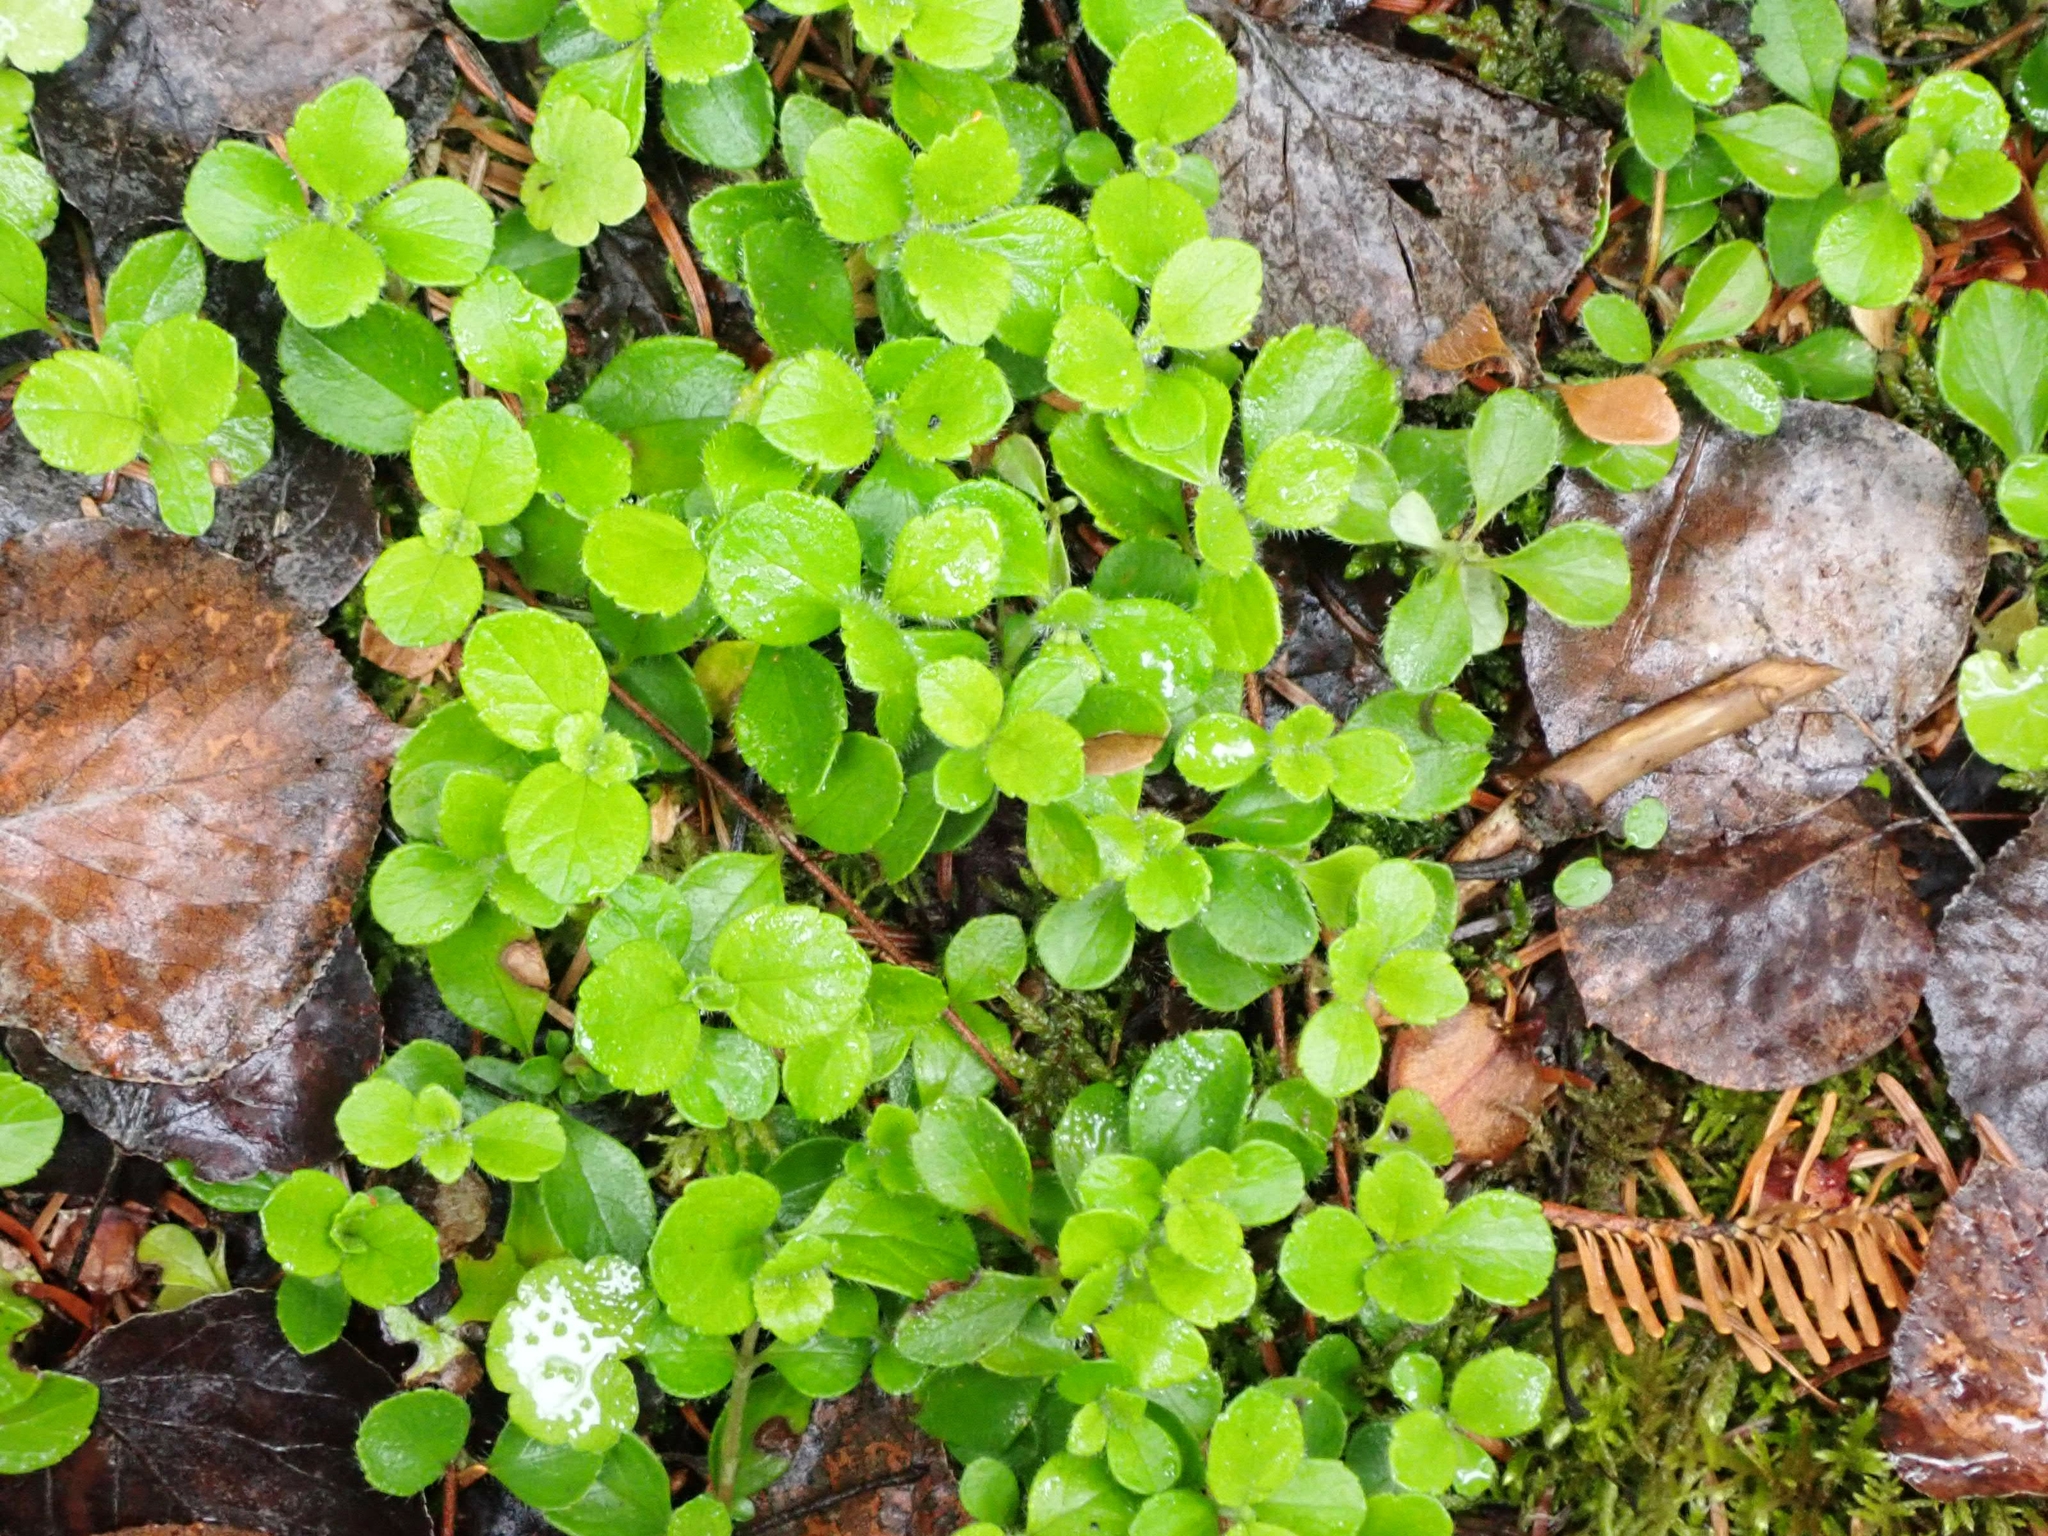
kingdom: Plantae
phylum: Tracheophyta
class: Magnoliopsida
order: Dipsacales
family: Caprifoliaceae
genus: Linnaea
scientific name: Linnaea borealis
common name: Twinflower
